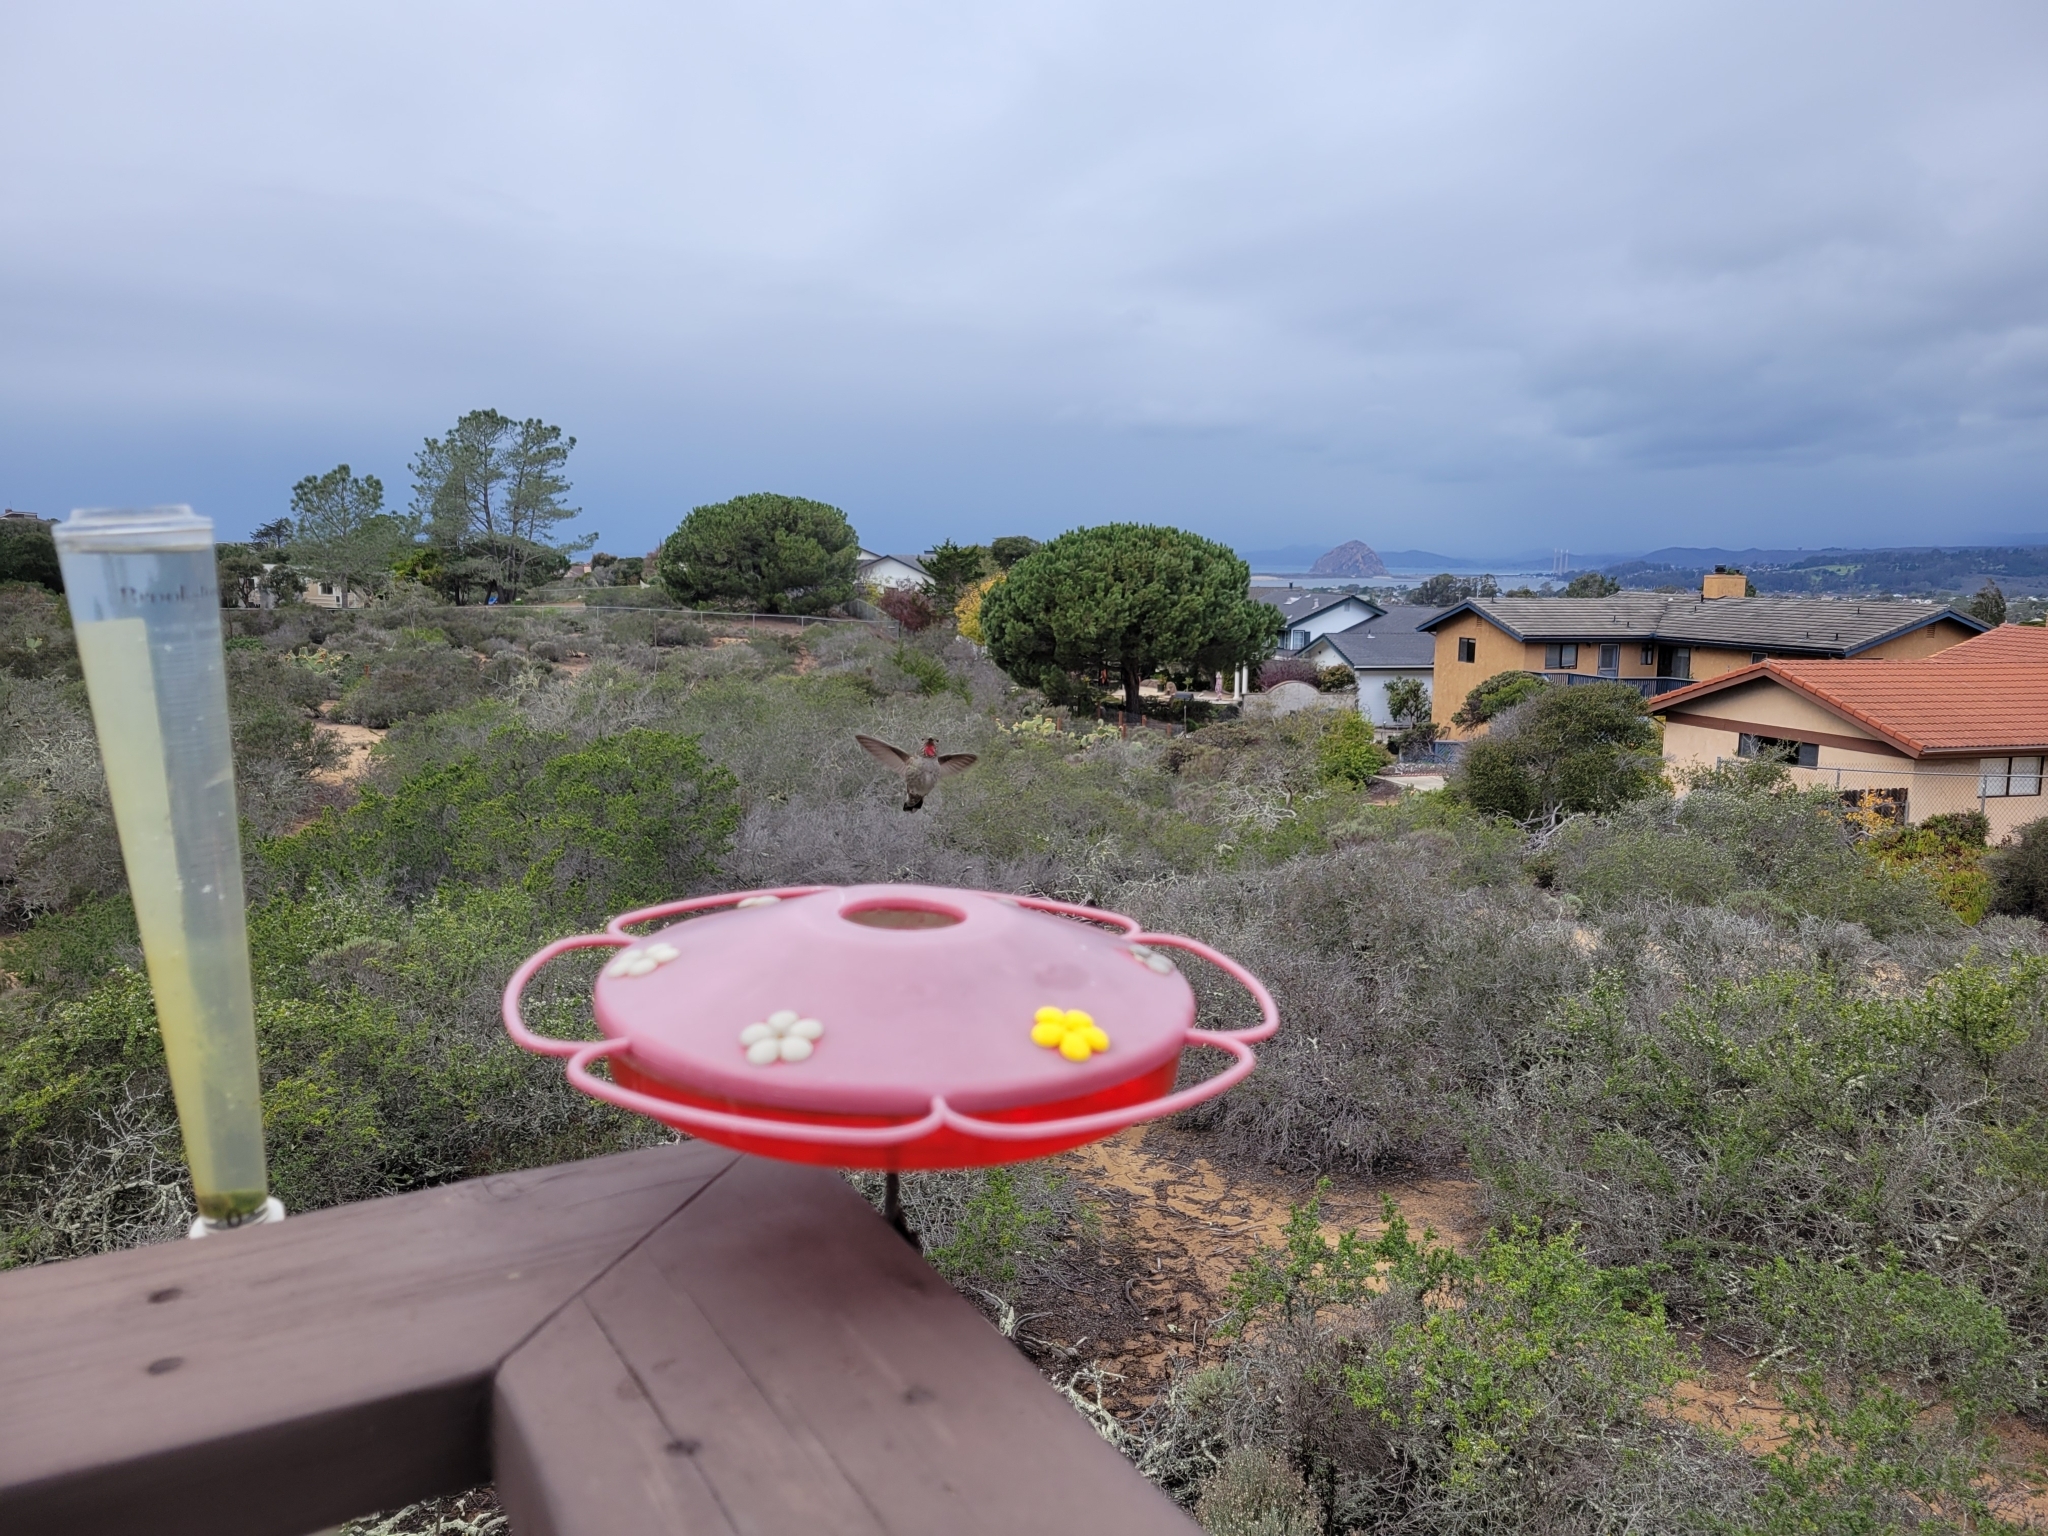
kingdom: Animalia
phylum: Chordata
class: Aves
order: Apodiformes
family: Trochilidae
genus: Calypte
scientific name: Calypte anna
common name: Anna's hummingbird
